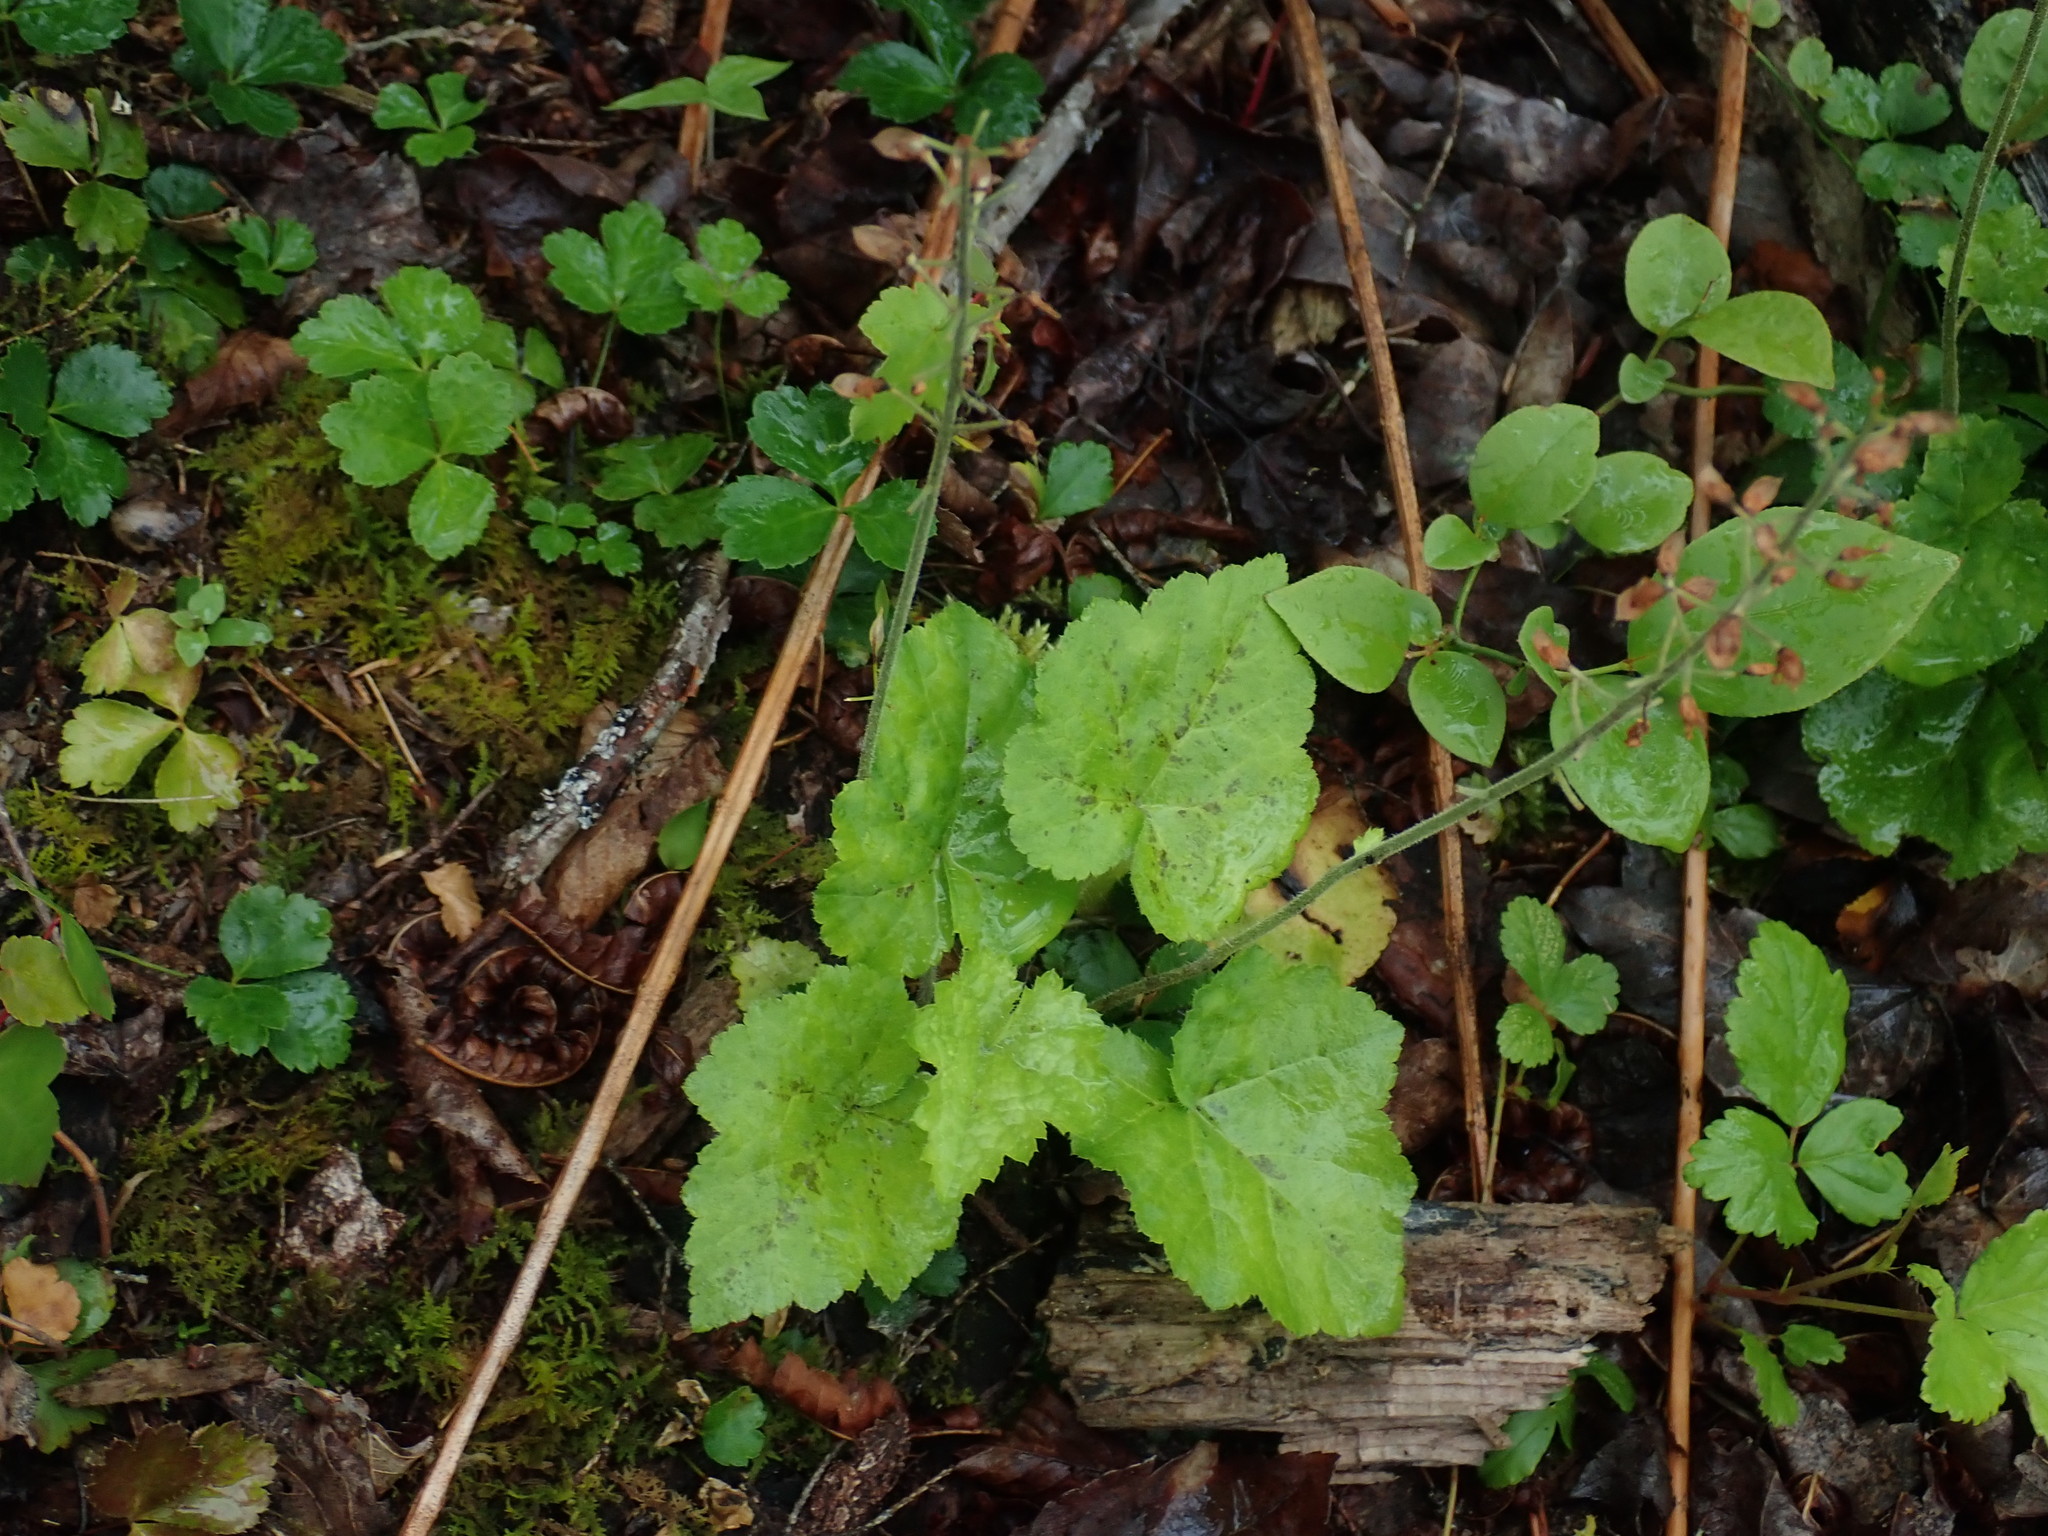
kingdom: Plantae
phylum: Tracheophyta
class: Magnoliopsida
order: Saxifragales
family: Saxifragaceae
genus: Tiarella
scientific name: Tiarella stolonifera
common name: Stoloniferous foamflower
